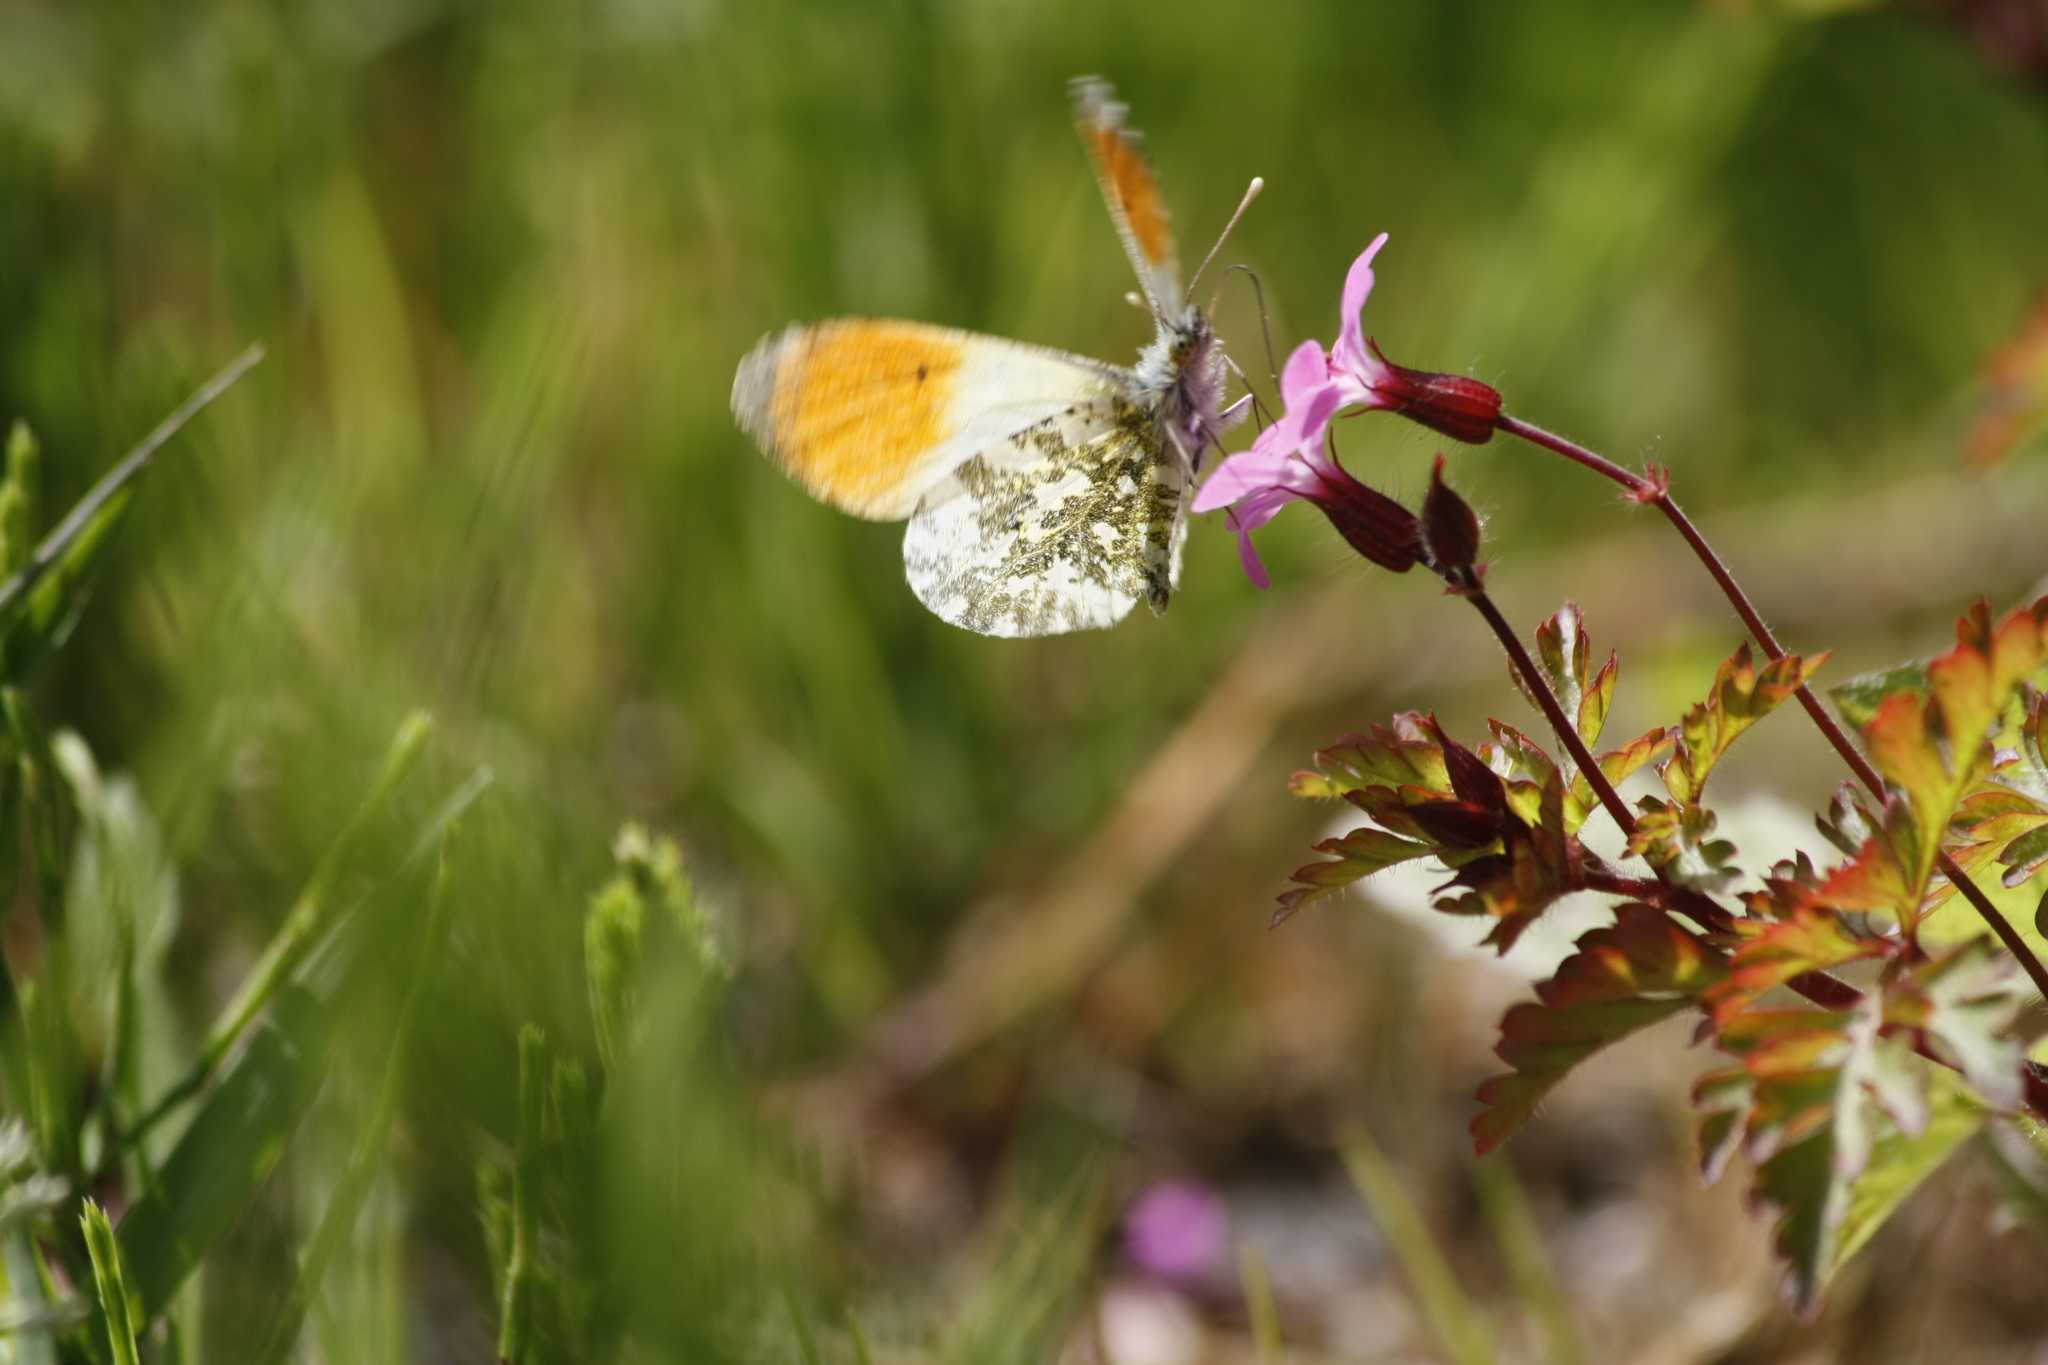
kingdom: Animalia
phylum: Arthropoda
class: Insecta
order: Lepidoptera
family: Pieridae
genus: Anthocharis
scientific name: Anthocharis cardamines
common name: Orange-tip
